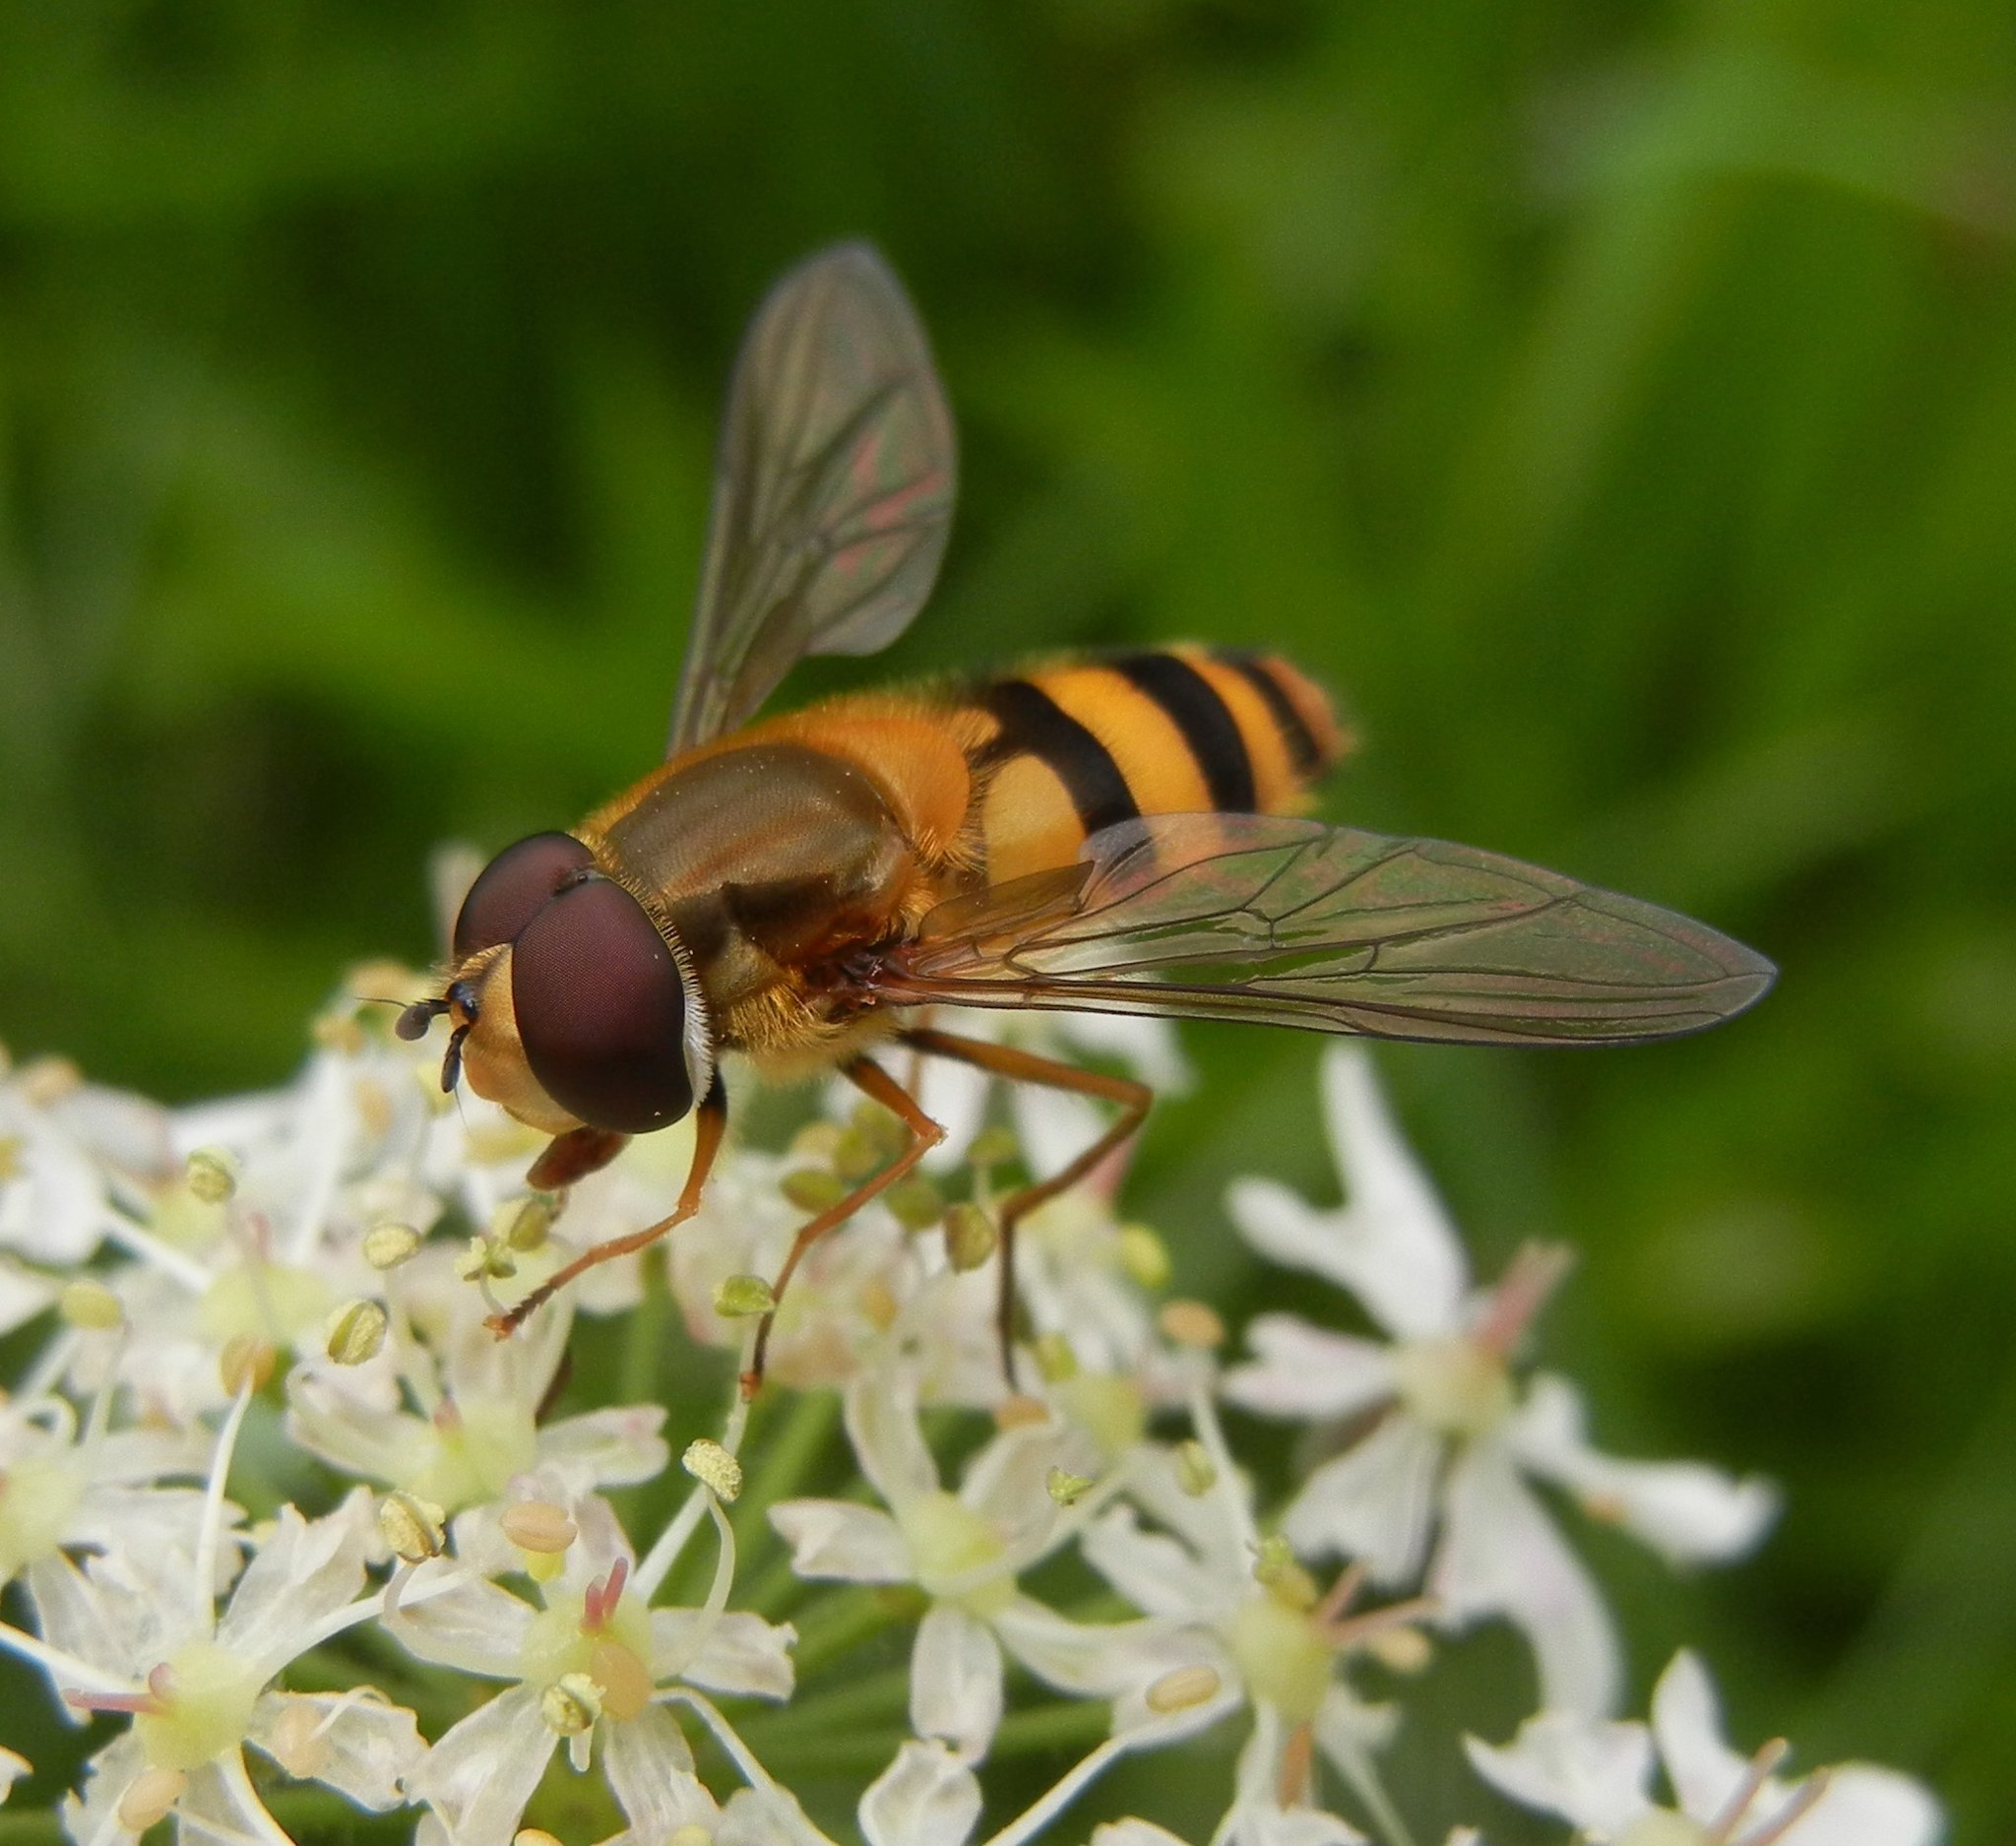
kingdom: Animalia
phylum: Arthropoda
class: Insecta
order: Diptera
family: Syrphidae
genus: Epistrophe
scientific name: Epistrophe grossulariae
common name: Black-horned smoothtail
